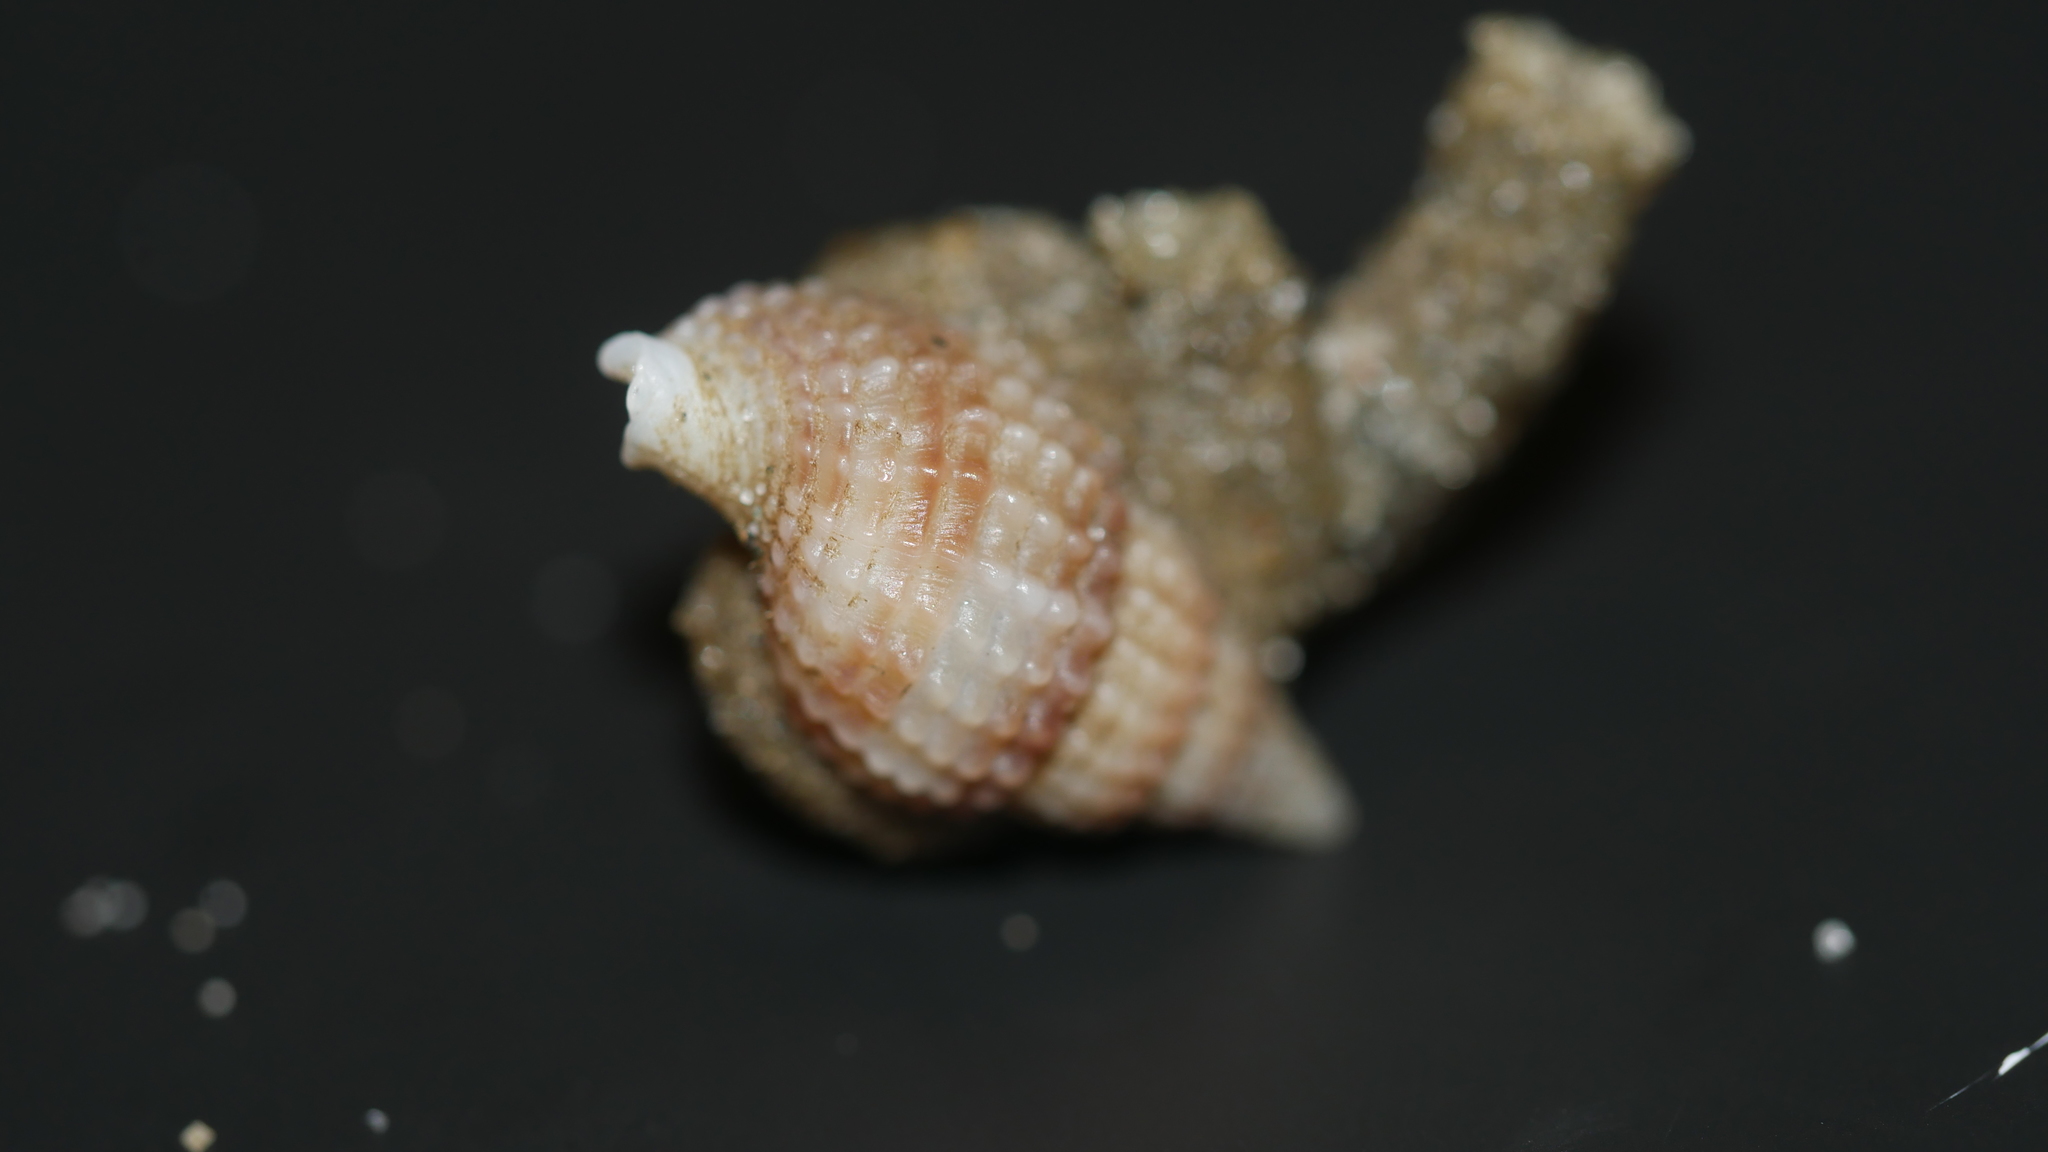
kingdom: Animalia
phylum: Mollusca
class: Gastropoda
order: Neogastropoda
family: Nassariidae
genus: Ilyanassa
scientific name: Ilyanassa trivittata
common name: Three-line mudsnail
